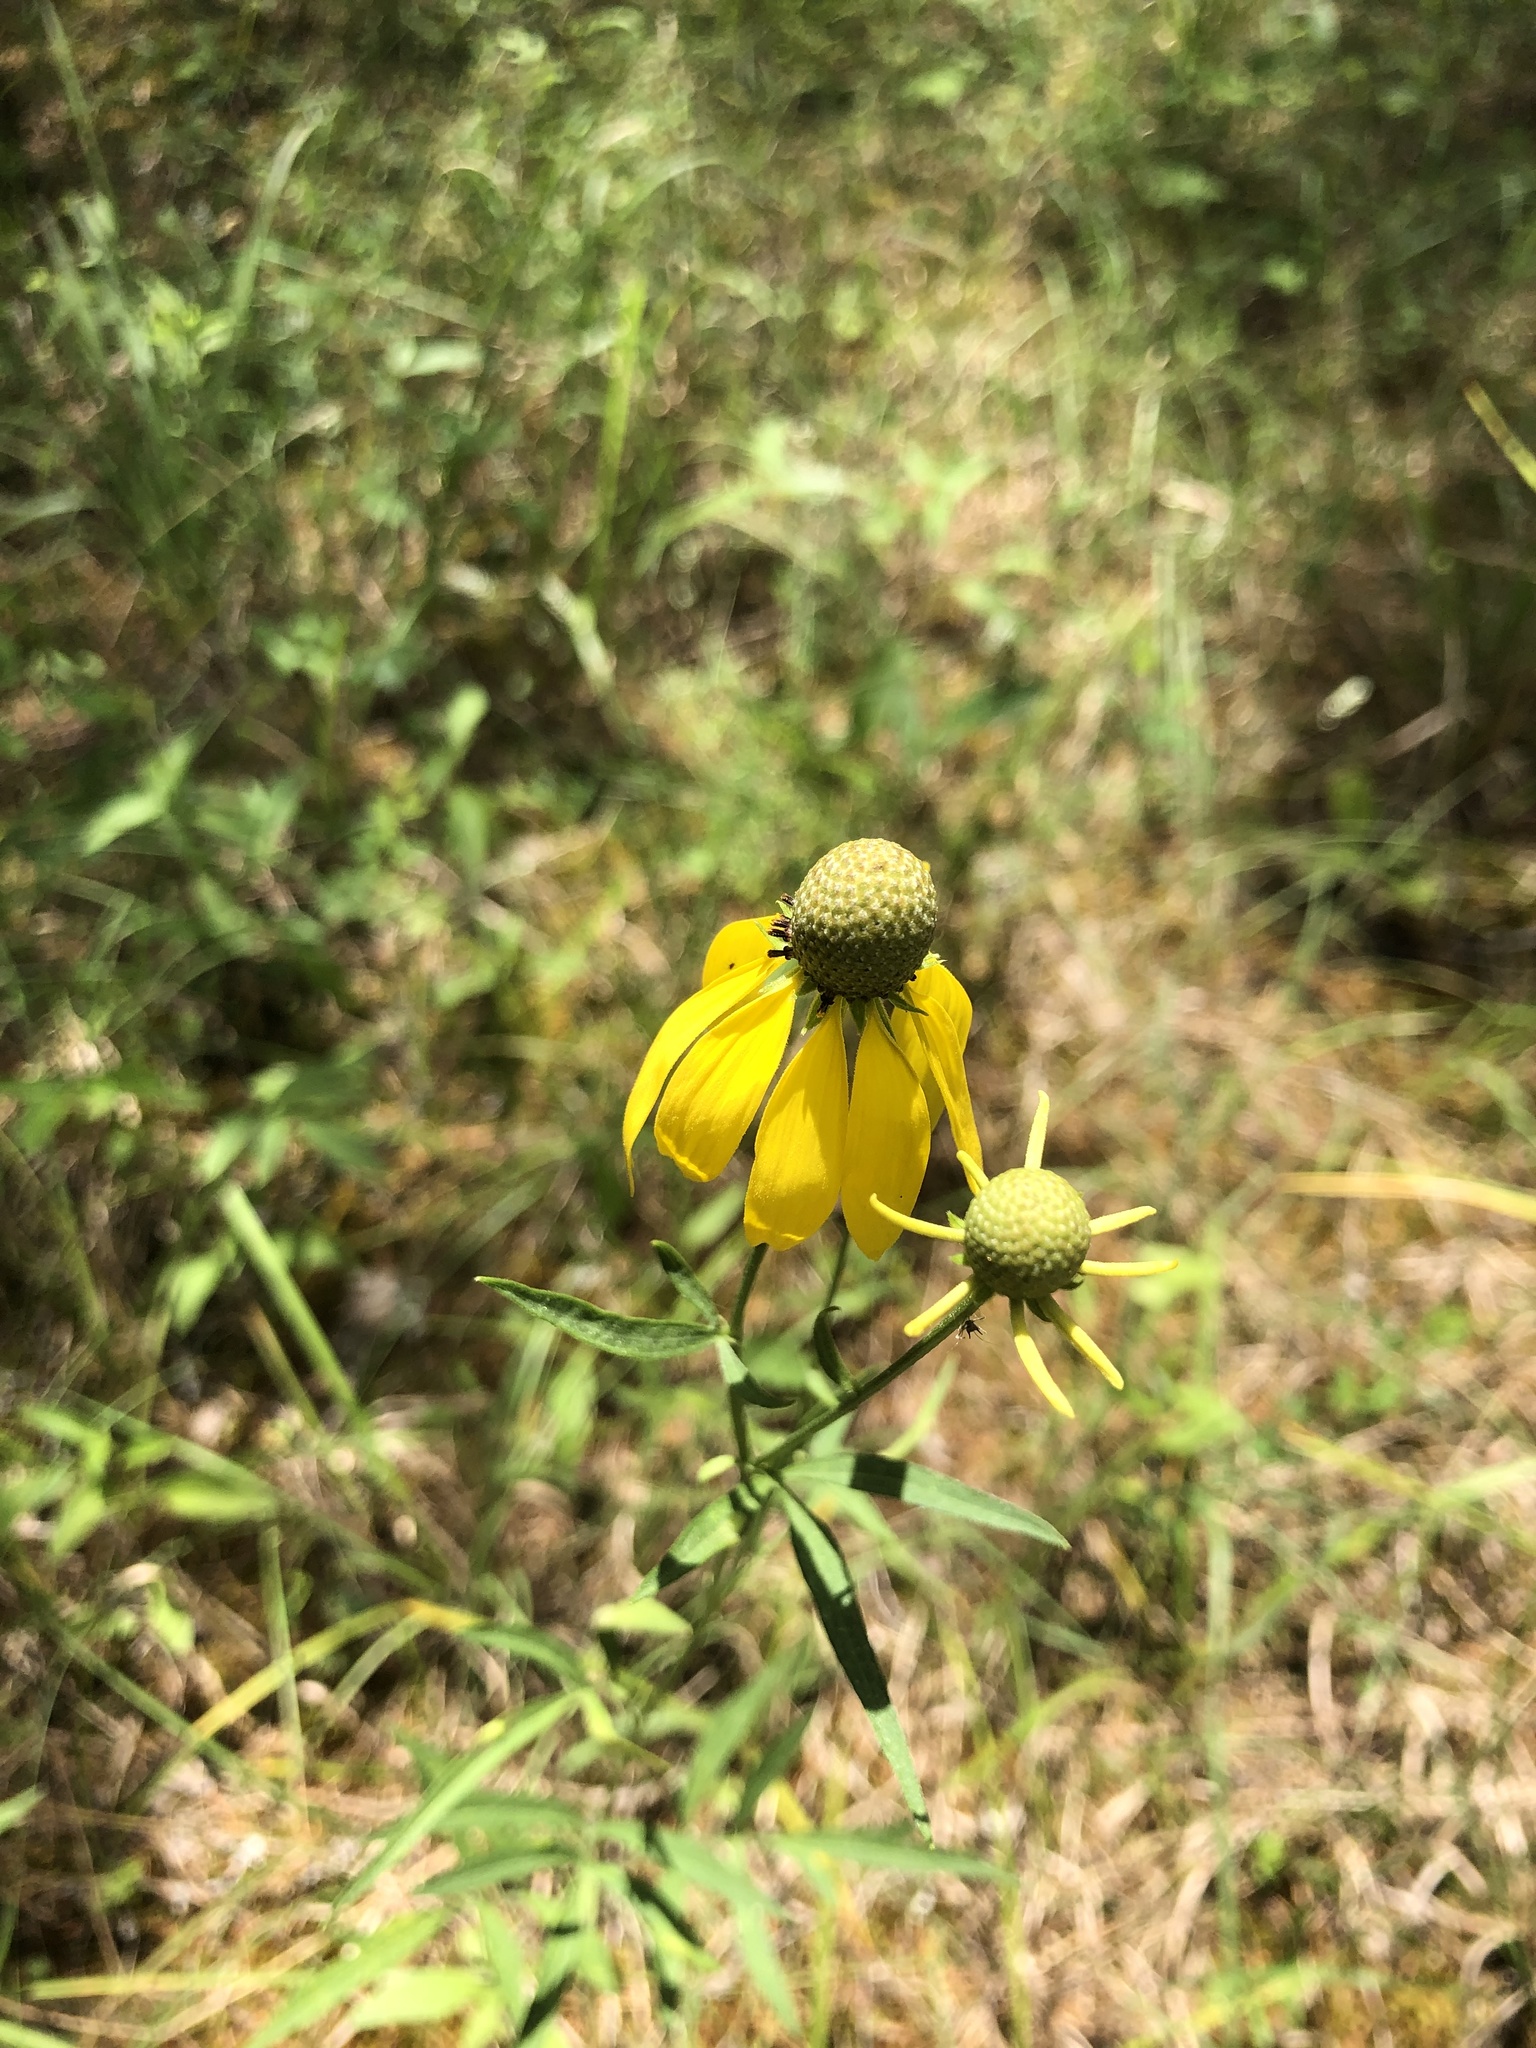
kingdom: Plantae
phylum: Tracheophyta
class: Magnoliopsida
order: Asterales
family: Asteraceae
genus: Ratibida
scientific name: Ratibida pinnata
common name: Drooping prairie-coneflower
